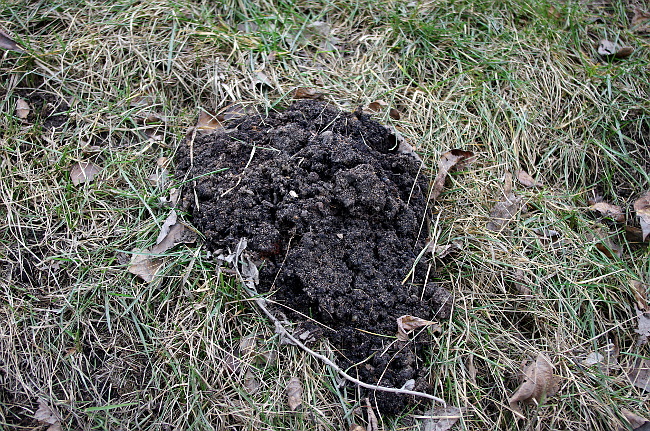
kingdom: Animalia
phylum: Chordata
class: Mammalia
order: Soricomorpha
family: Talpidae
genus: Talpa
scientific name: Talpa europaea
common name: European mole
